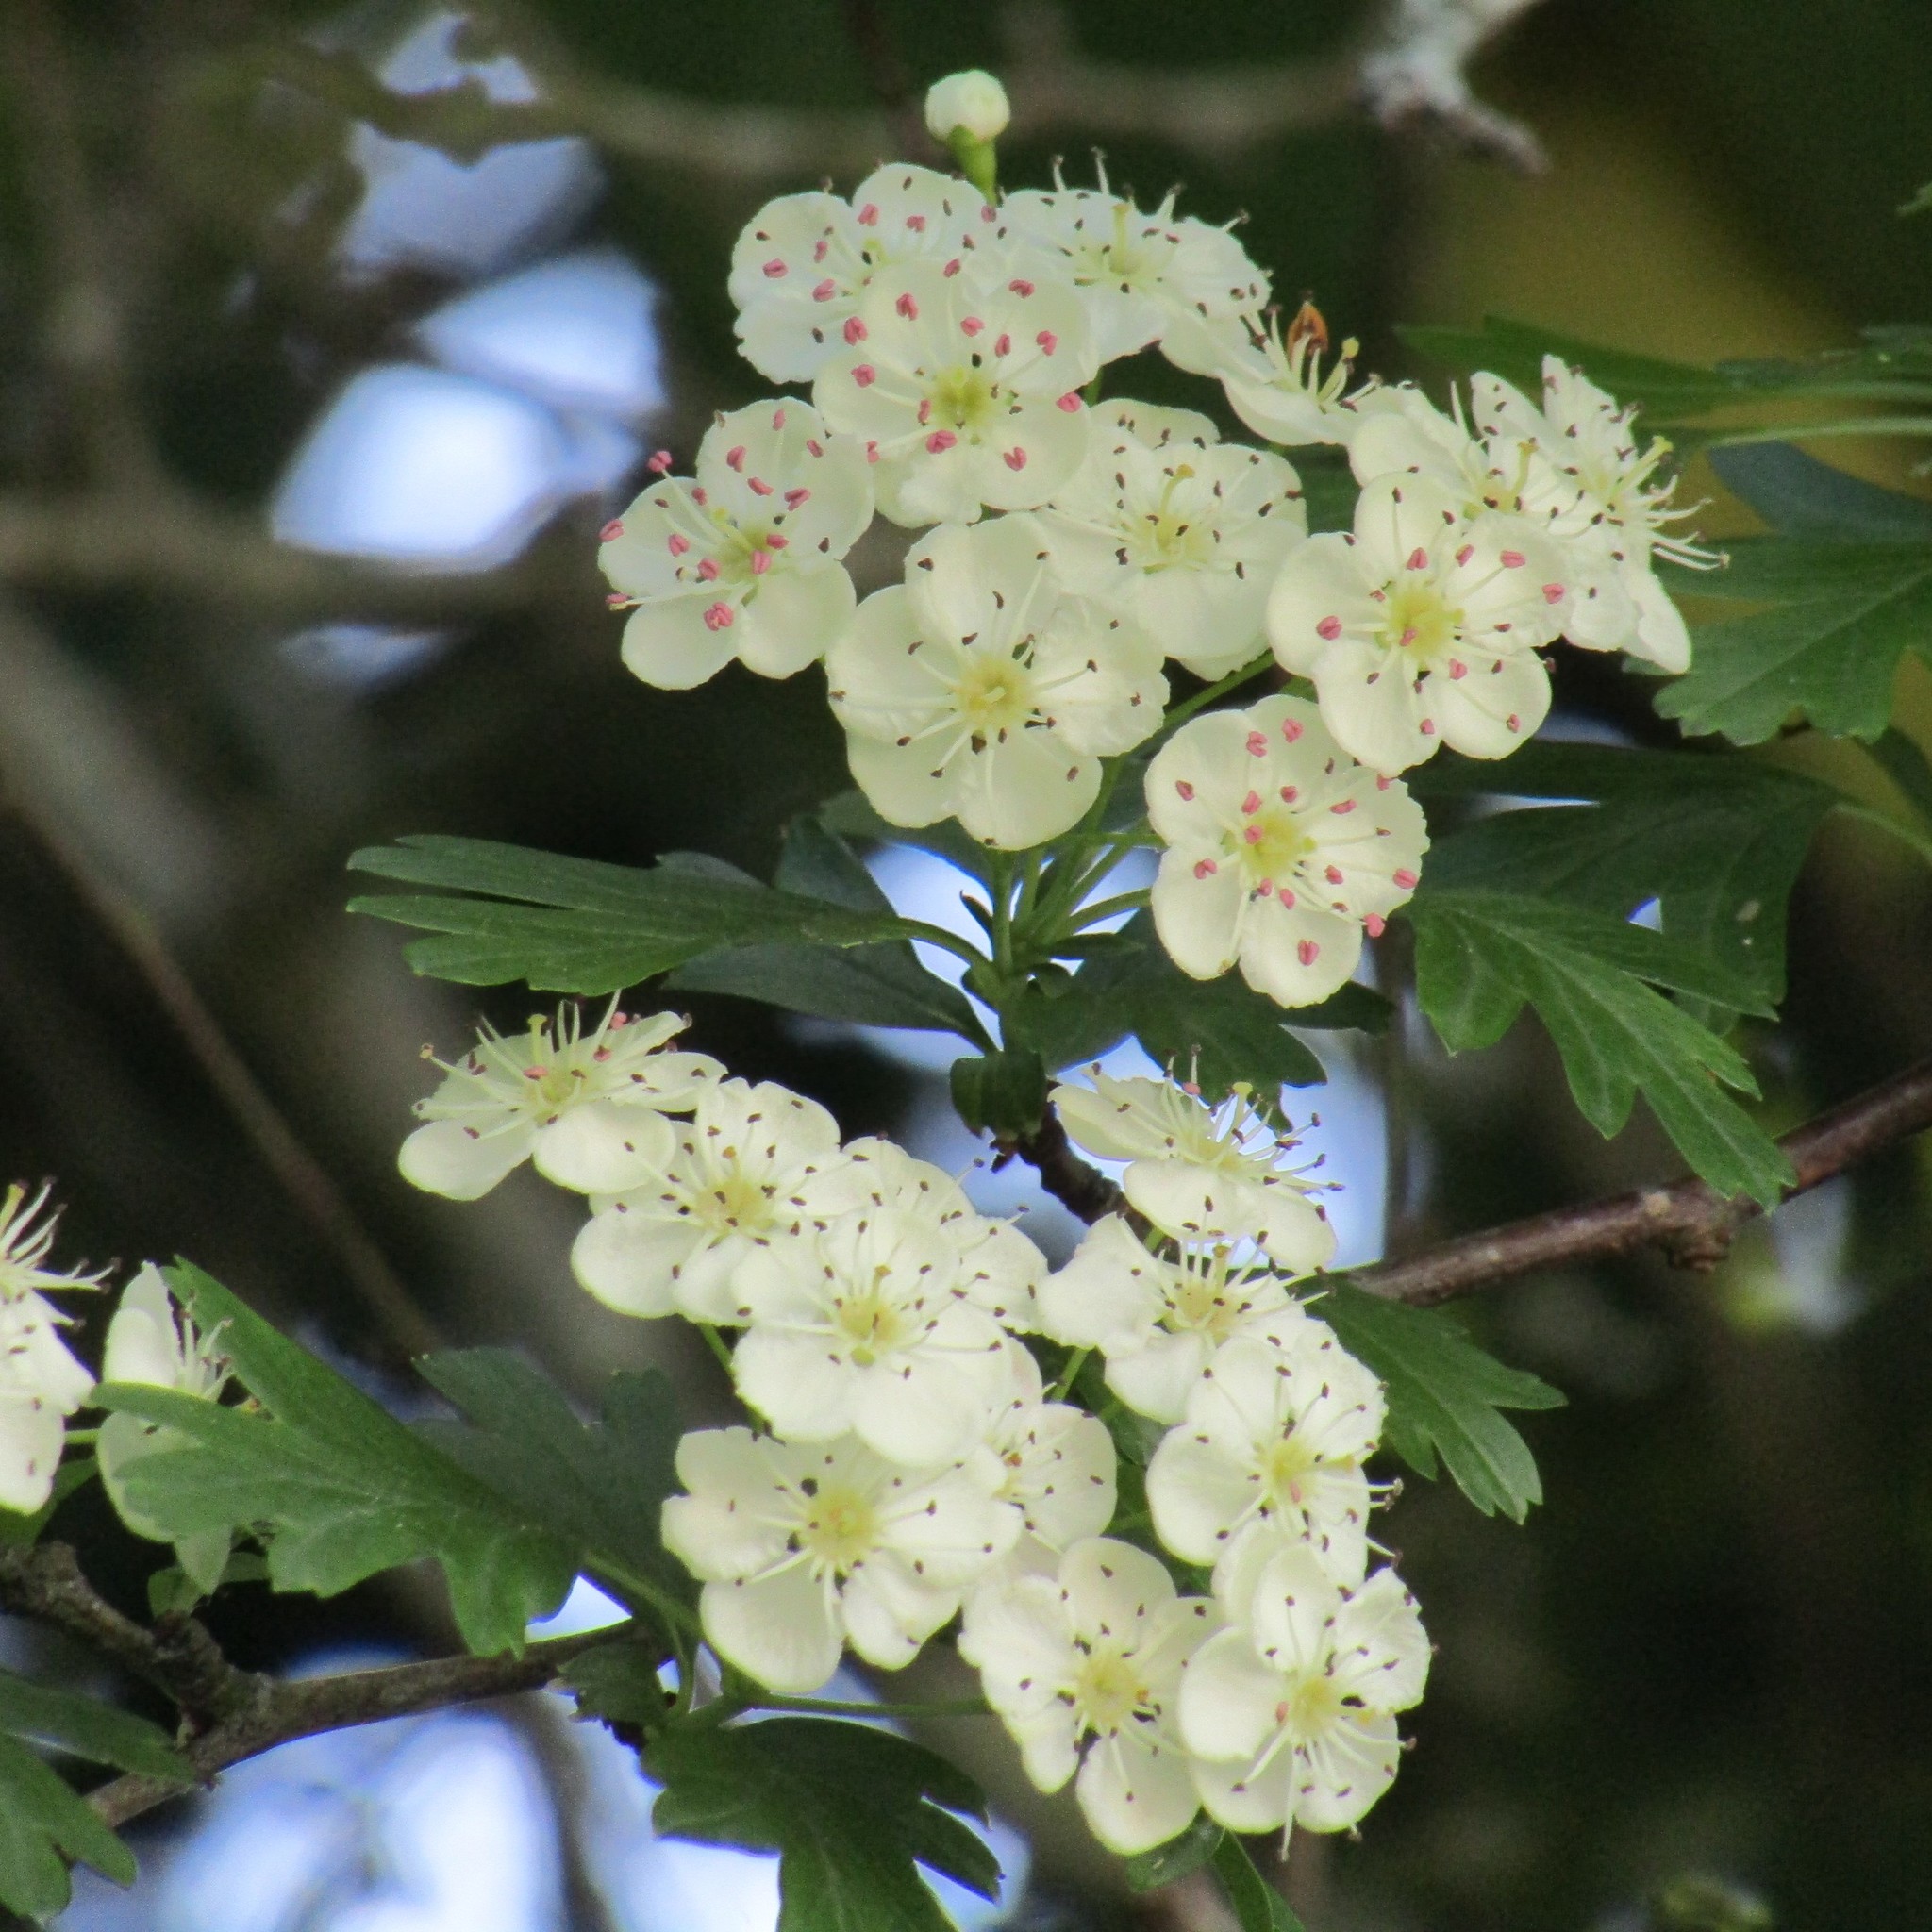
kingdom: Plantae
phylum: Tracheophyta
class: Magnoliopsida
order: Rosales
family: Rosaceae
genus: Crataegus
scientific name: Crataegus monogyna
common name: Hawthorn
